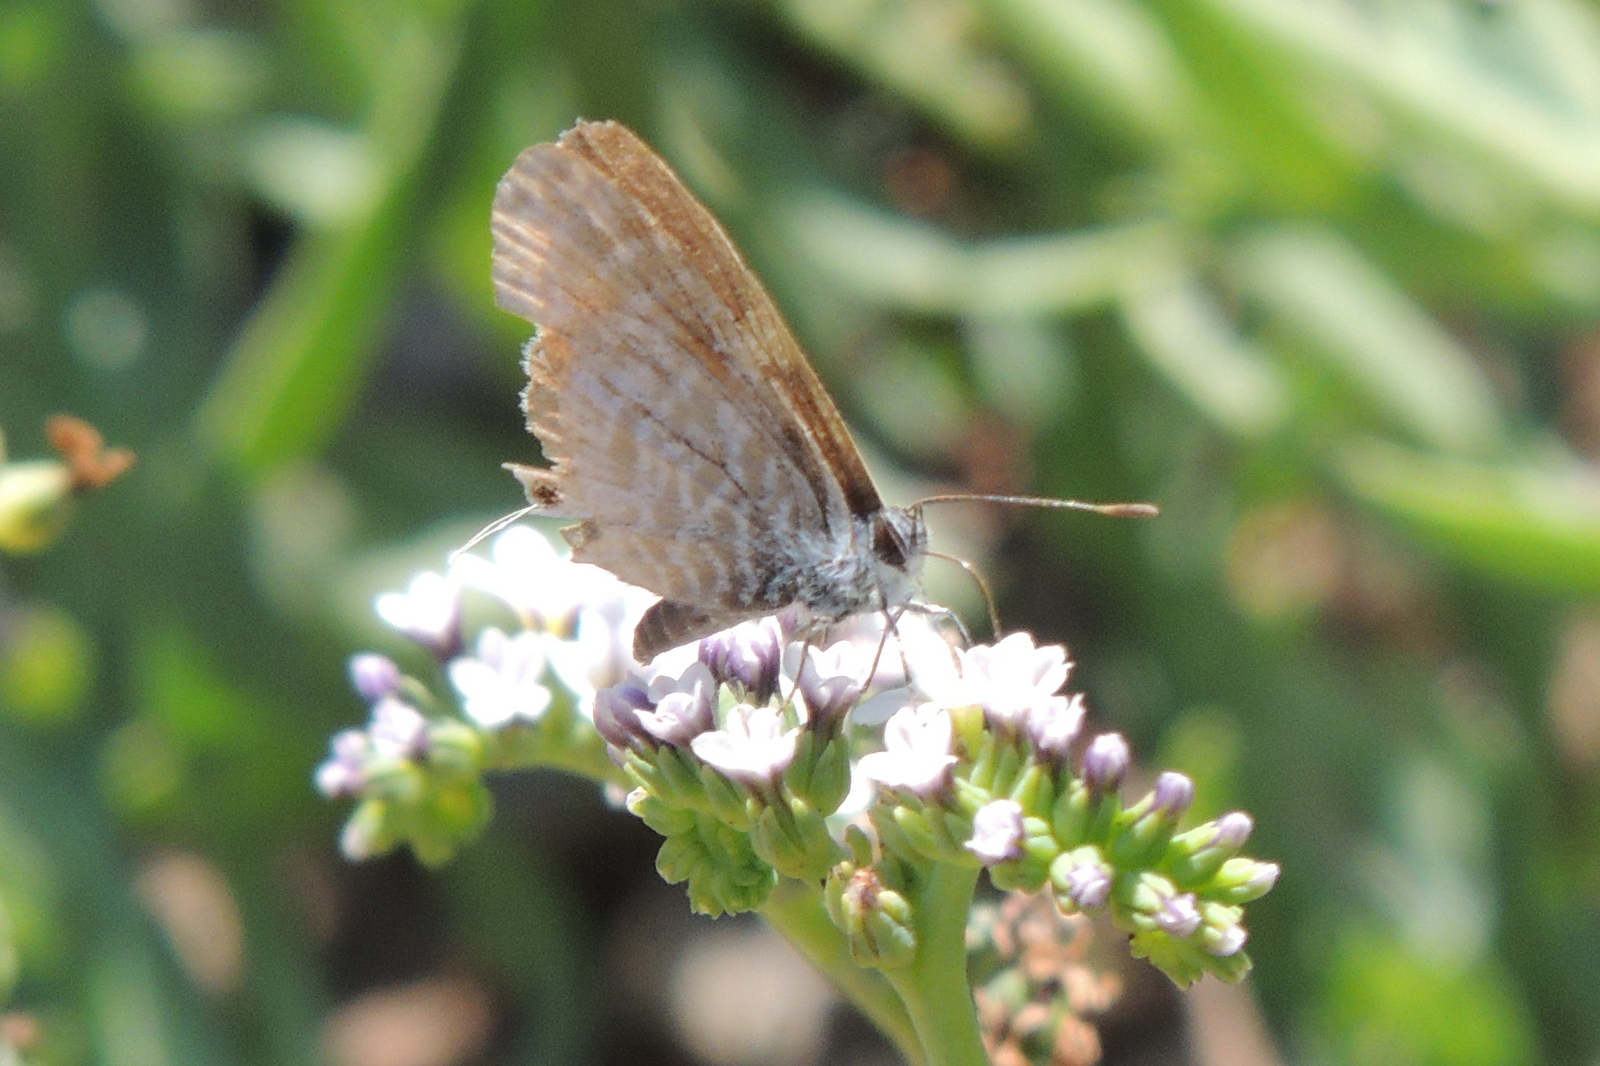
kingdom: Animalia
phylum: Arthropoda
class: Insecta
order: Lepidoptera
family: Lycaenidae
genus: Leptotes
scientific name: Leptotes marina
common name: Marine blue
